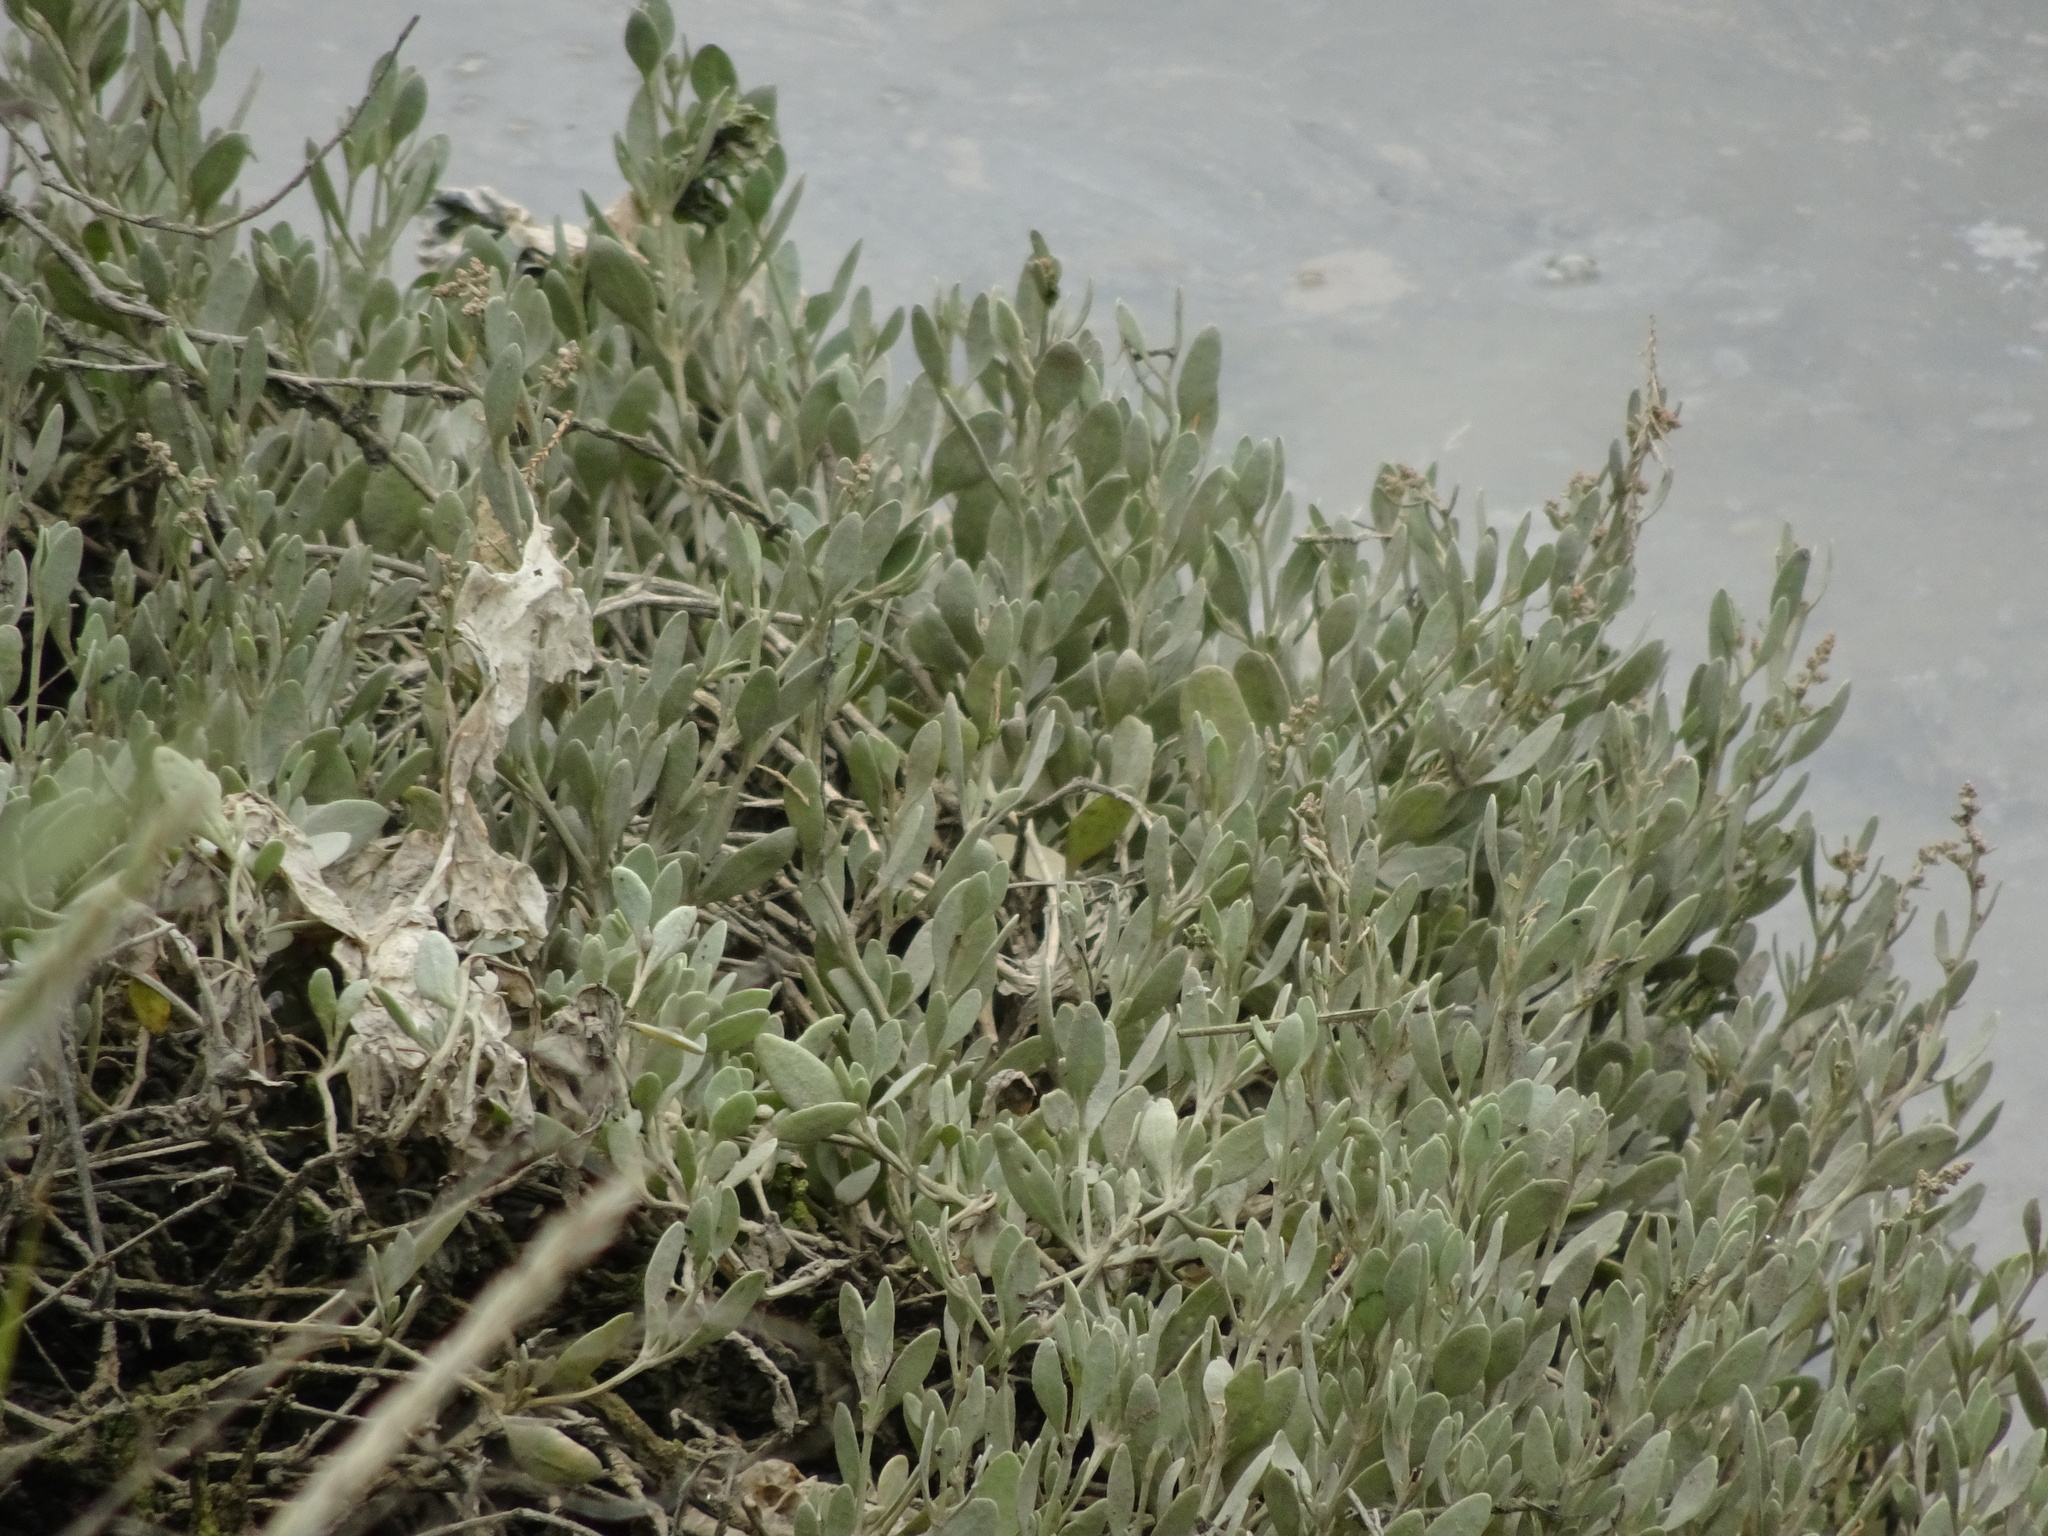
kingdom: Plantae
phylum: Tracheophyta
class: Magnoliopsida
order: Caryophyllales
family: Amaranthaceae
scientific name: Amaranthaceae
